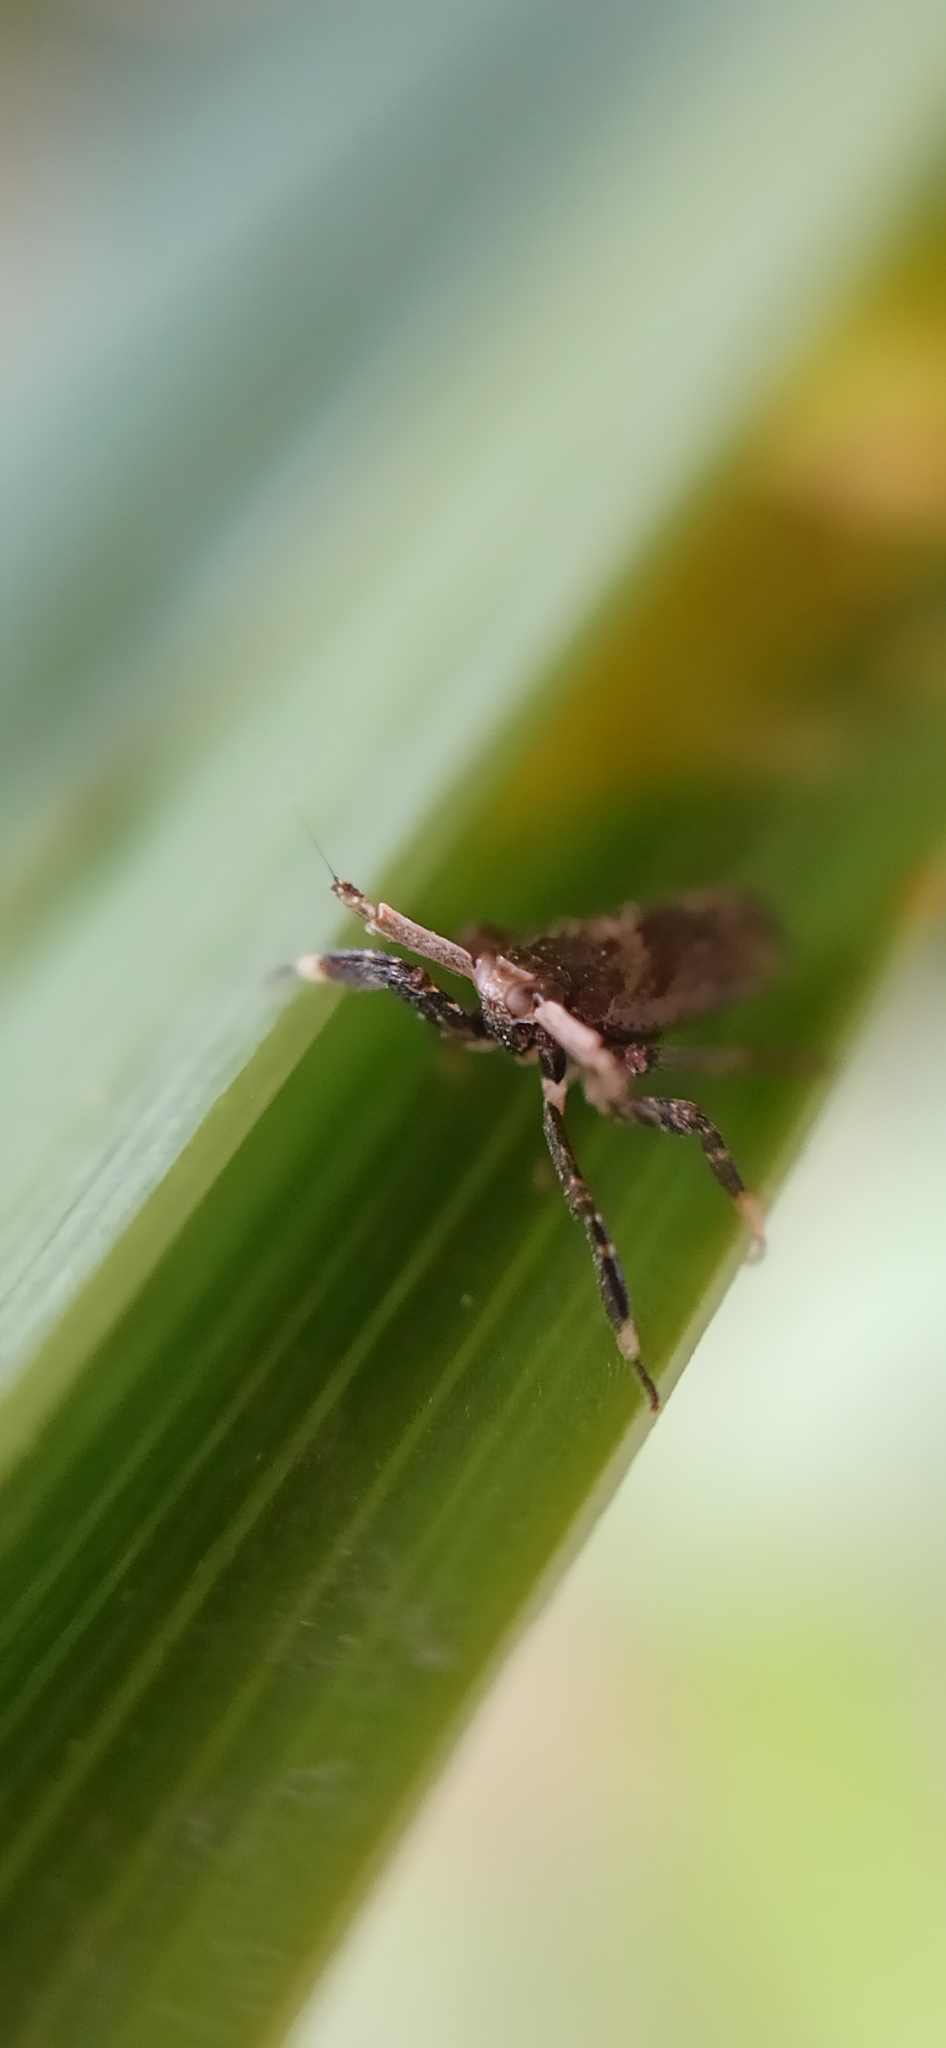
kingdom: Animalia
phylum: Arthropoda
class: Insecta
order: Hemiptera
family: Delphacidae
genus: Asiraca
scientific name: Asiraca clavicornis
